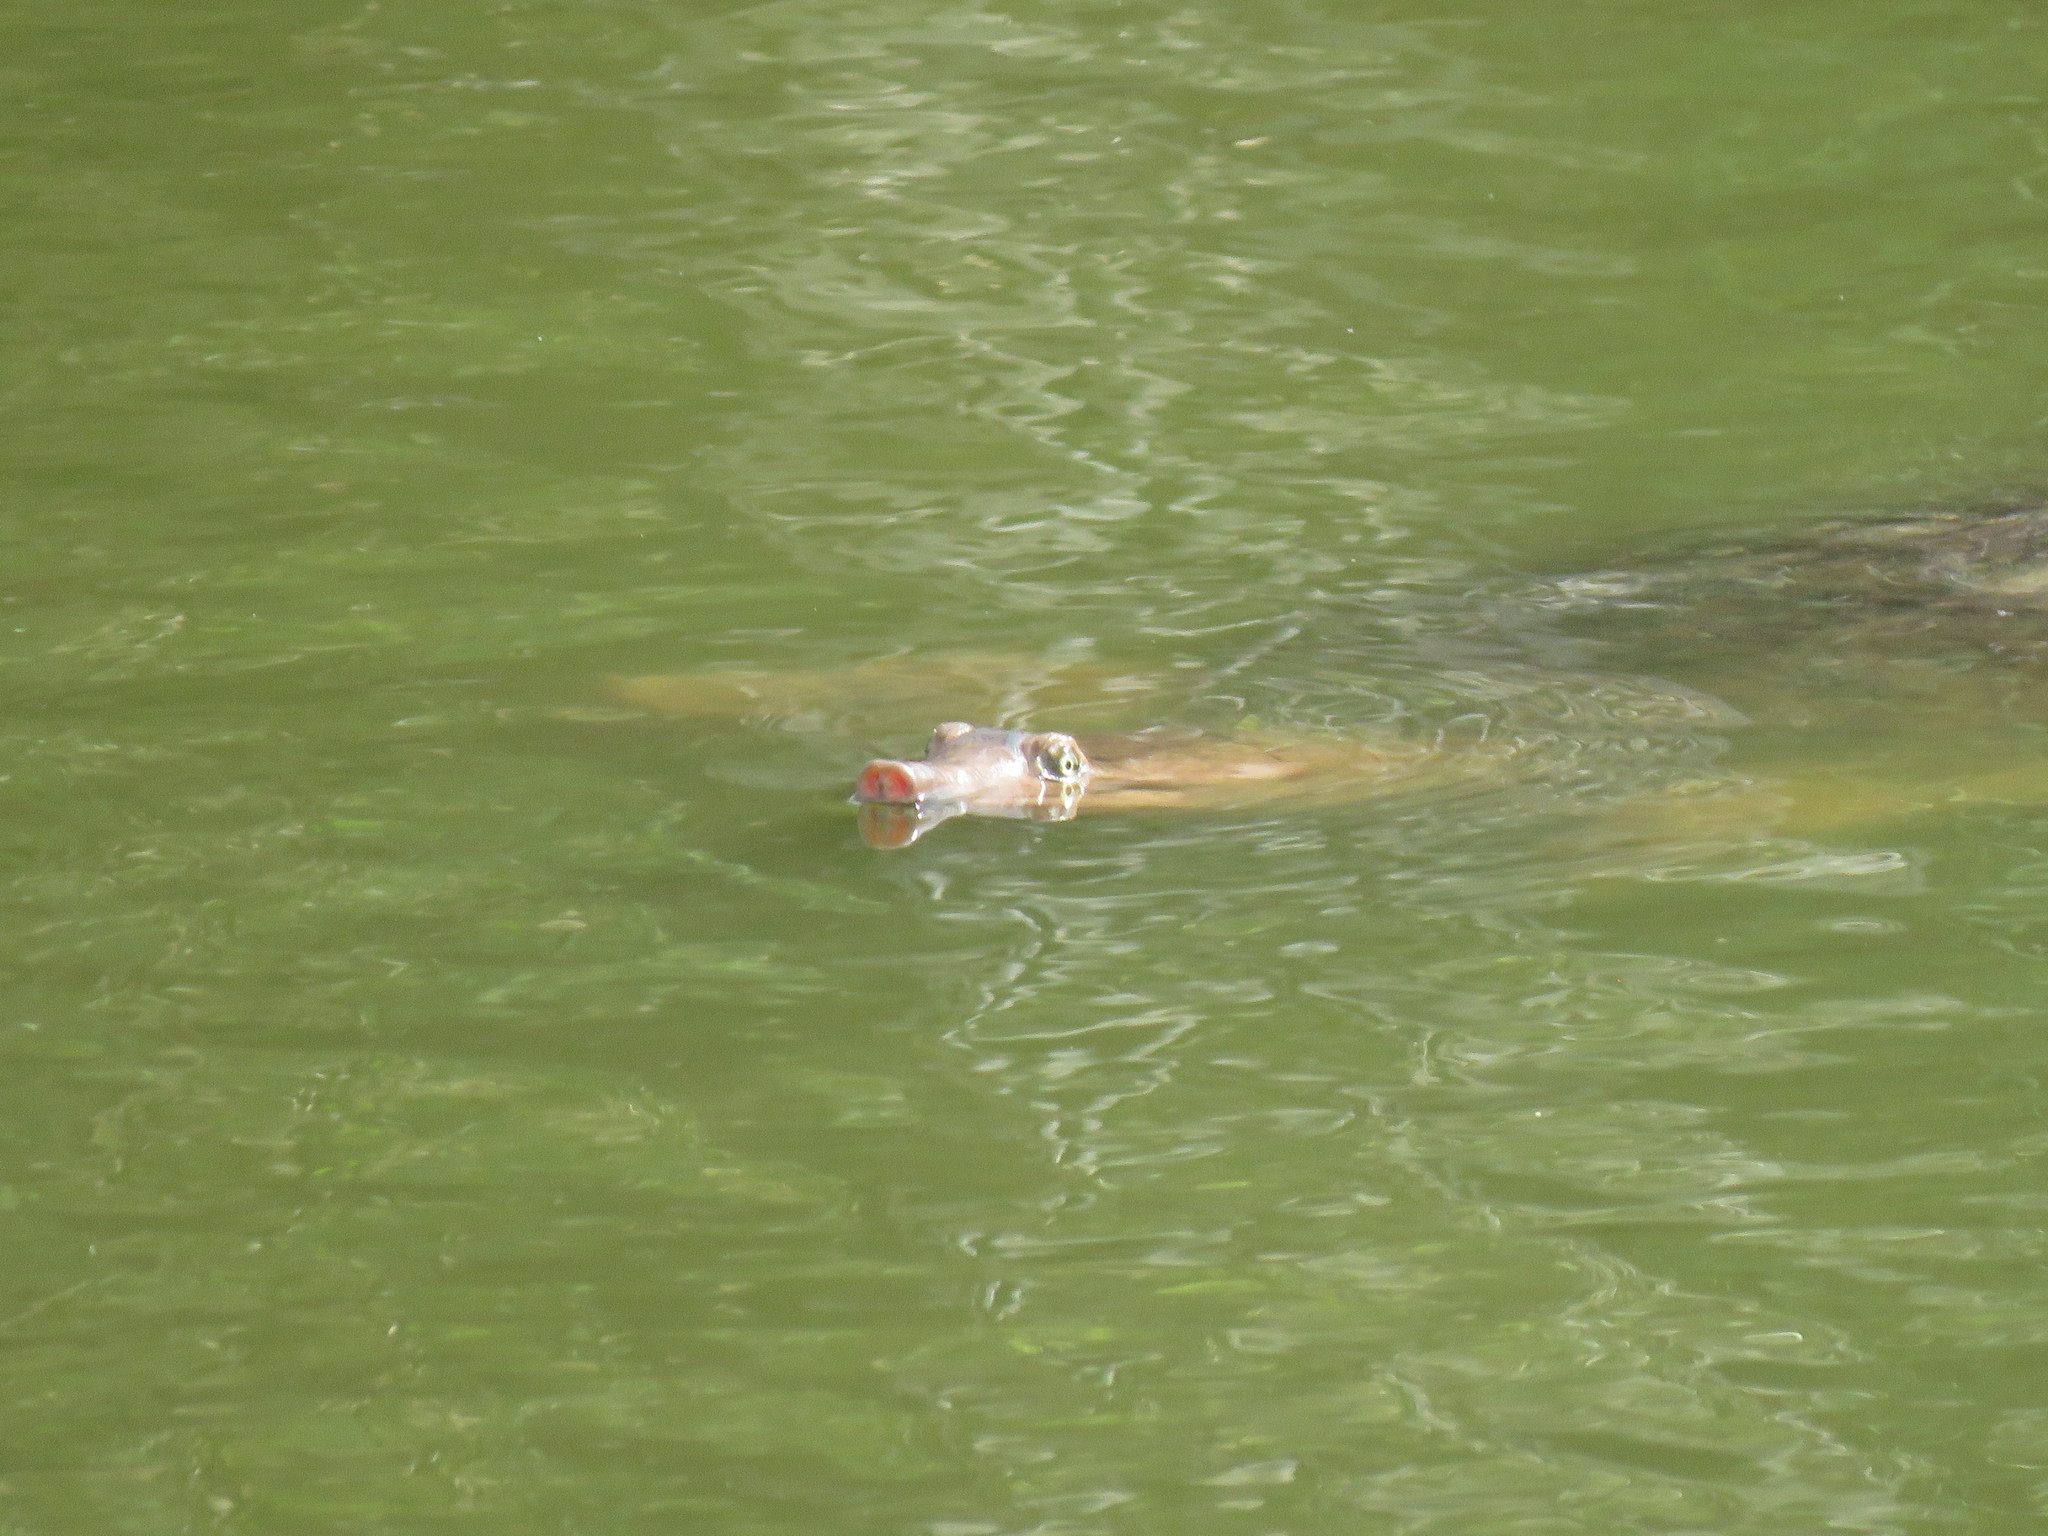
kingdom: Animalia
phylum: Chordata
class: Testudines
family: Trionychidae
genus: Apalone
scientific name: Apalone ferox
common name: Florida softshell turtle
